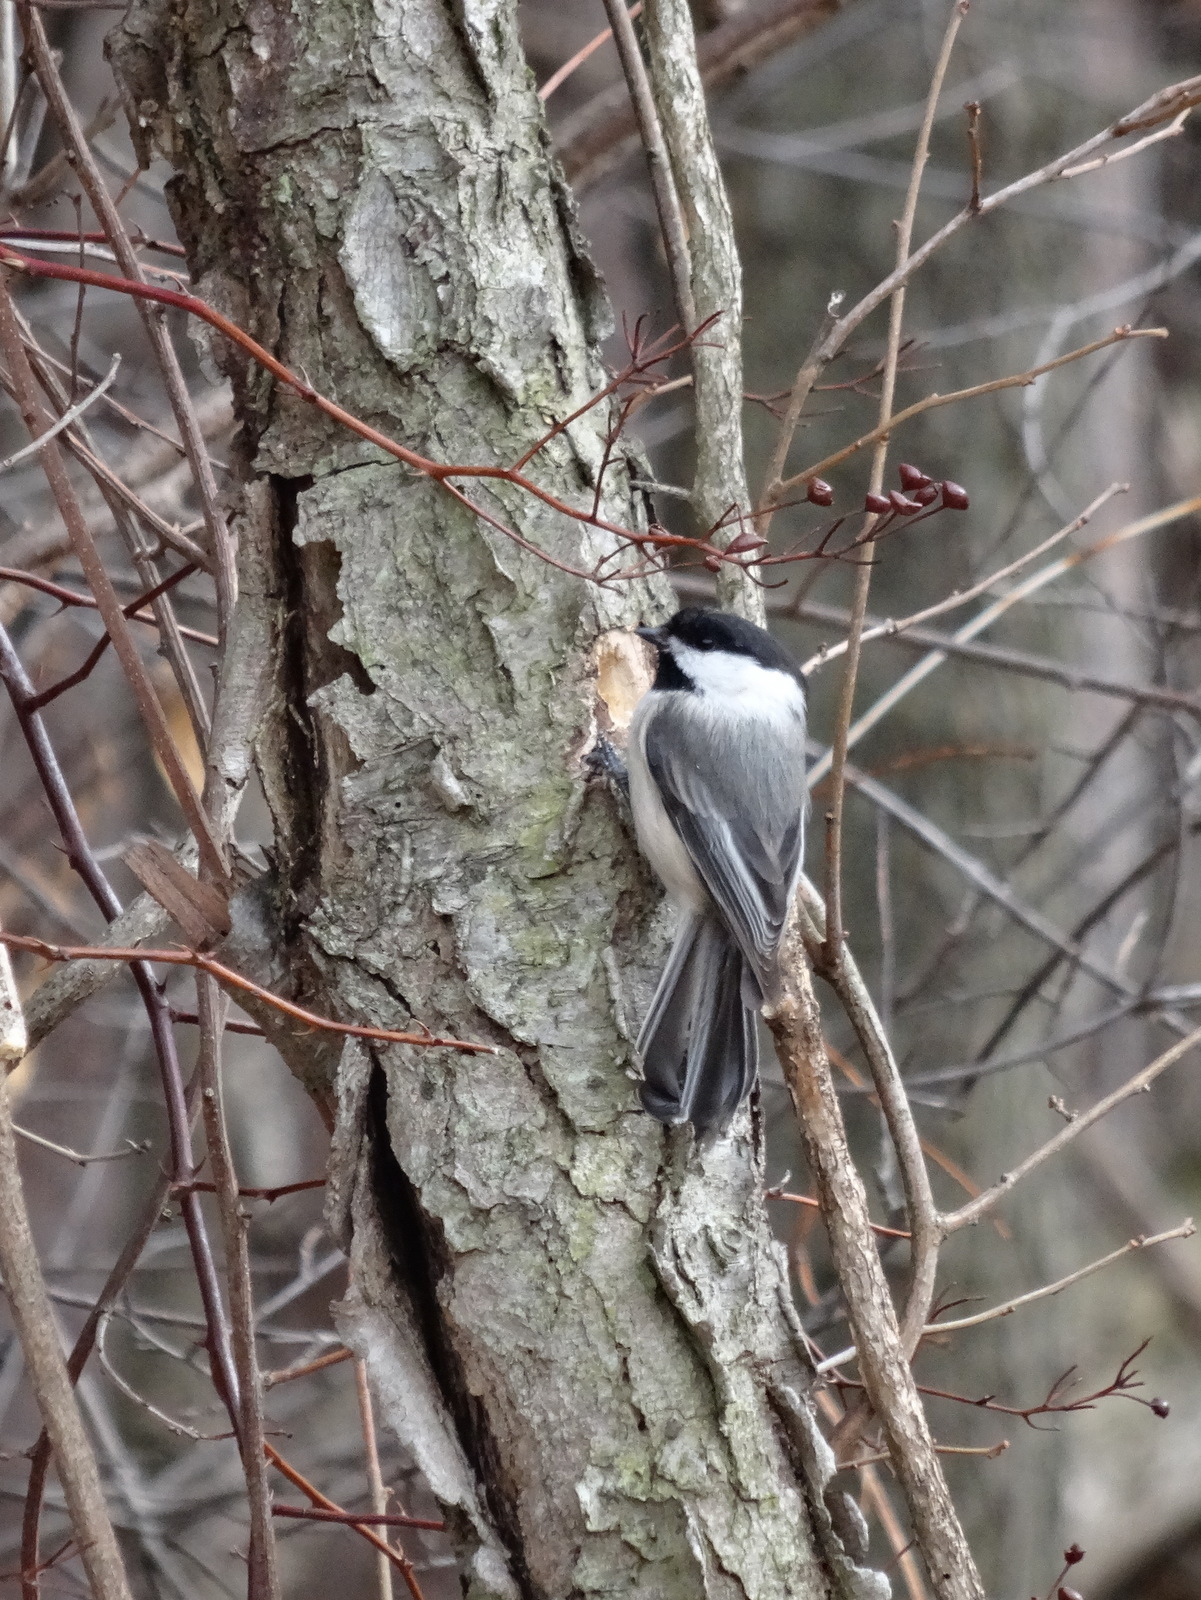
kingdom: Animalia
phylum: Chordata
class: Aves
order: Passeriformes
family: Paridae
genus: Poecile
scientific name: Poecile atricapillus
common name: Black-capped chickadee
